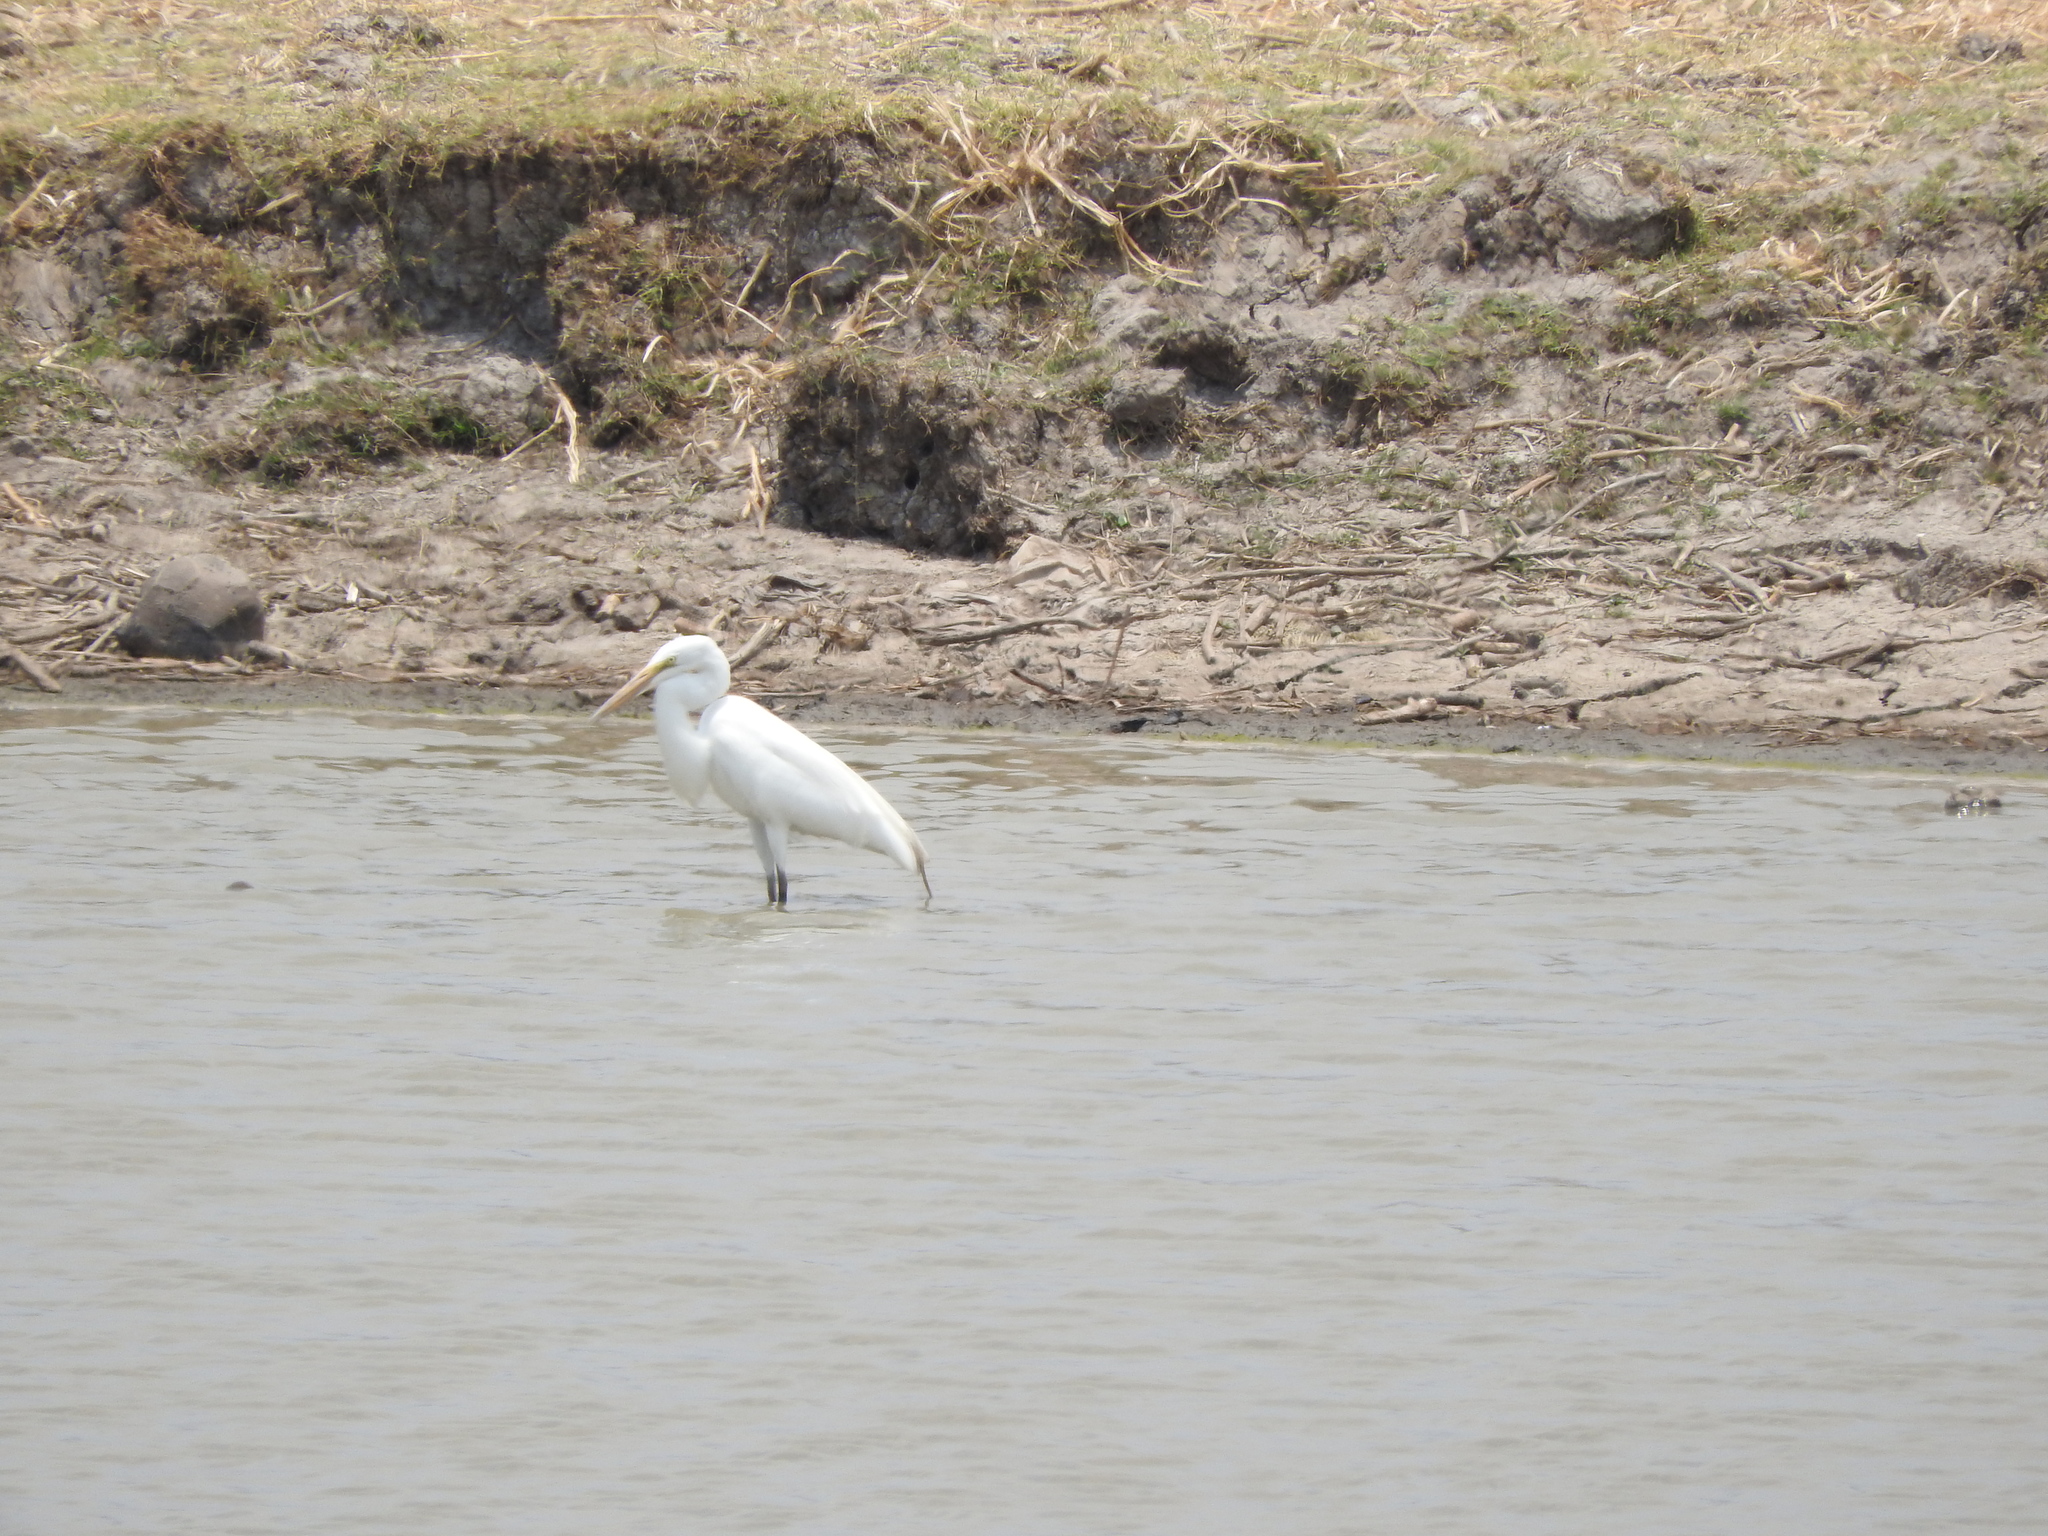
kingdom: Animalia
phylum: Chordata
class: Aves
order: Pelecaniformes
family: Ardeidae
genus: Ardea
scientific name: Ardea alba
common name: Great egret
